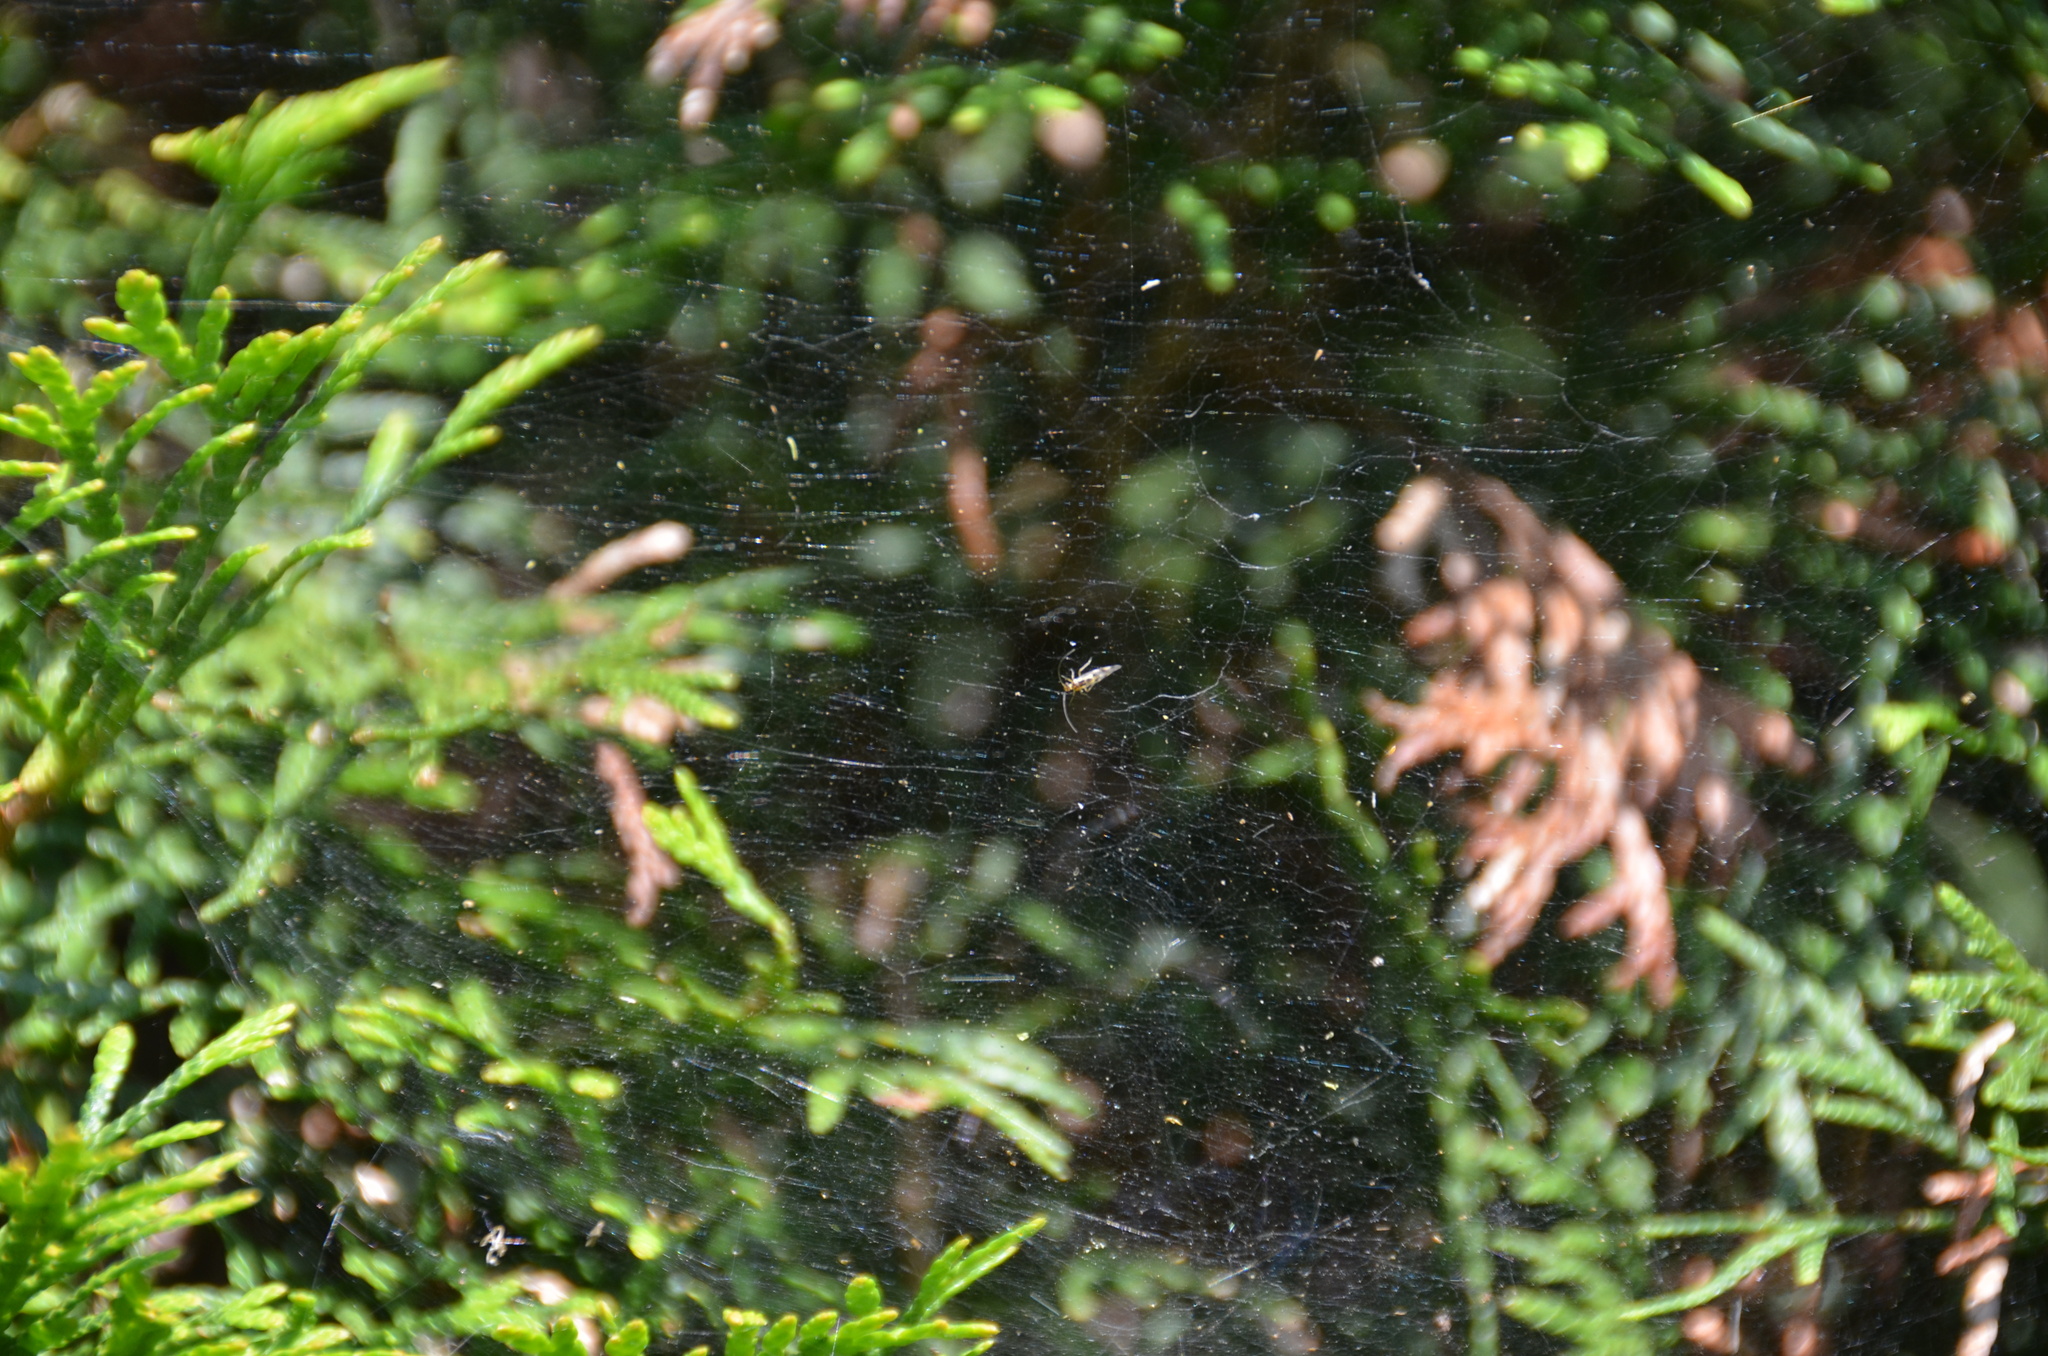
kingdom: Animalia
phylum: Arthropoda
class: Insecta
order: Psocodea
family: Stenopsocidae
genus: Graphopsocus
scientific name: Graphopsocus cruciatus
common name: Lizard bark louse
